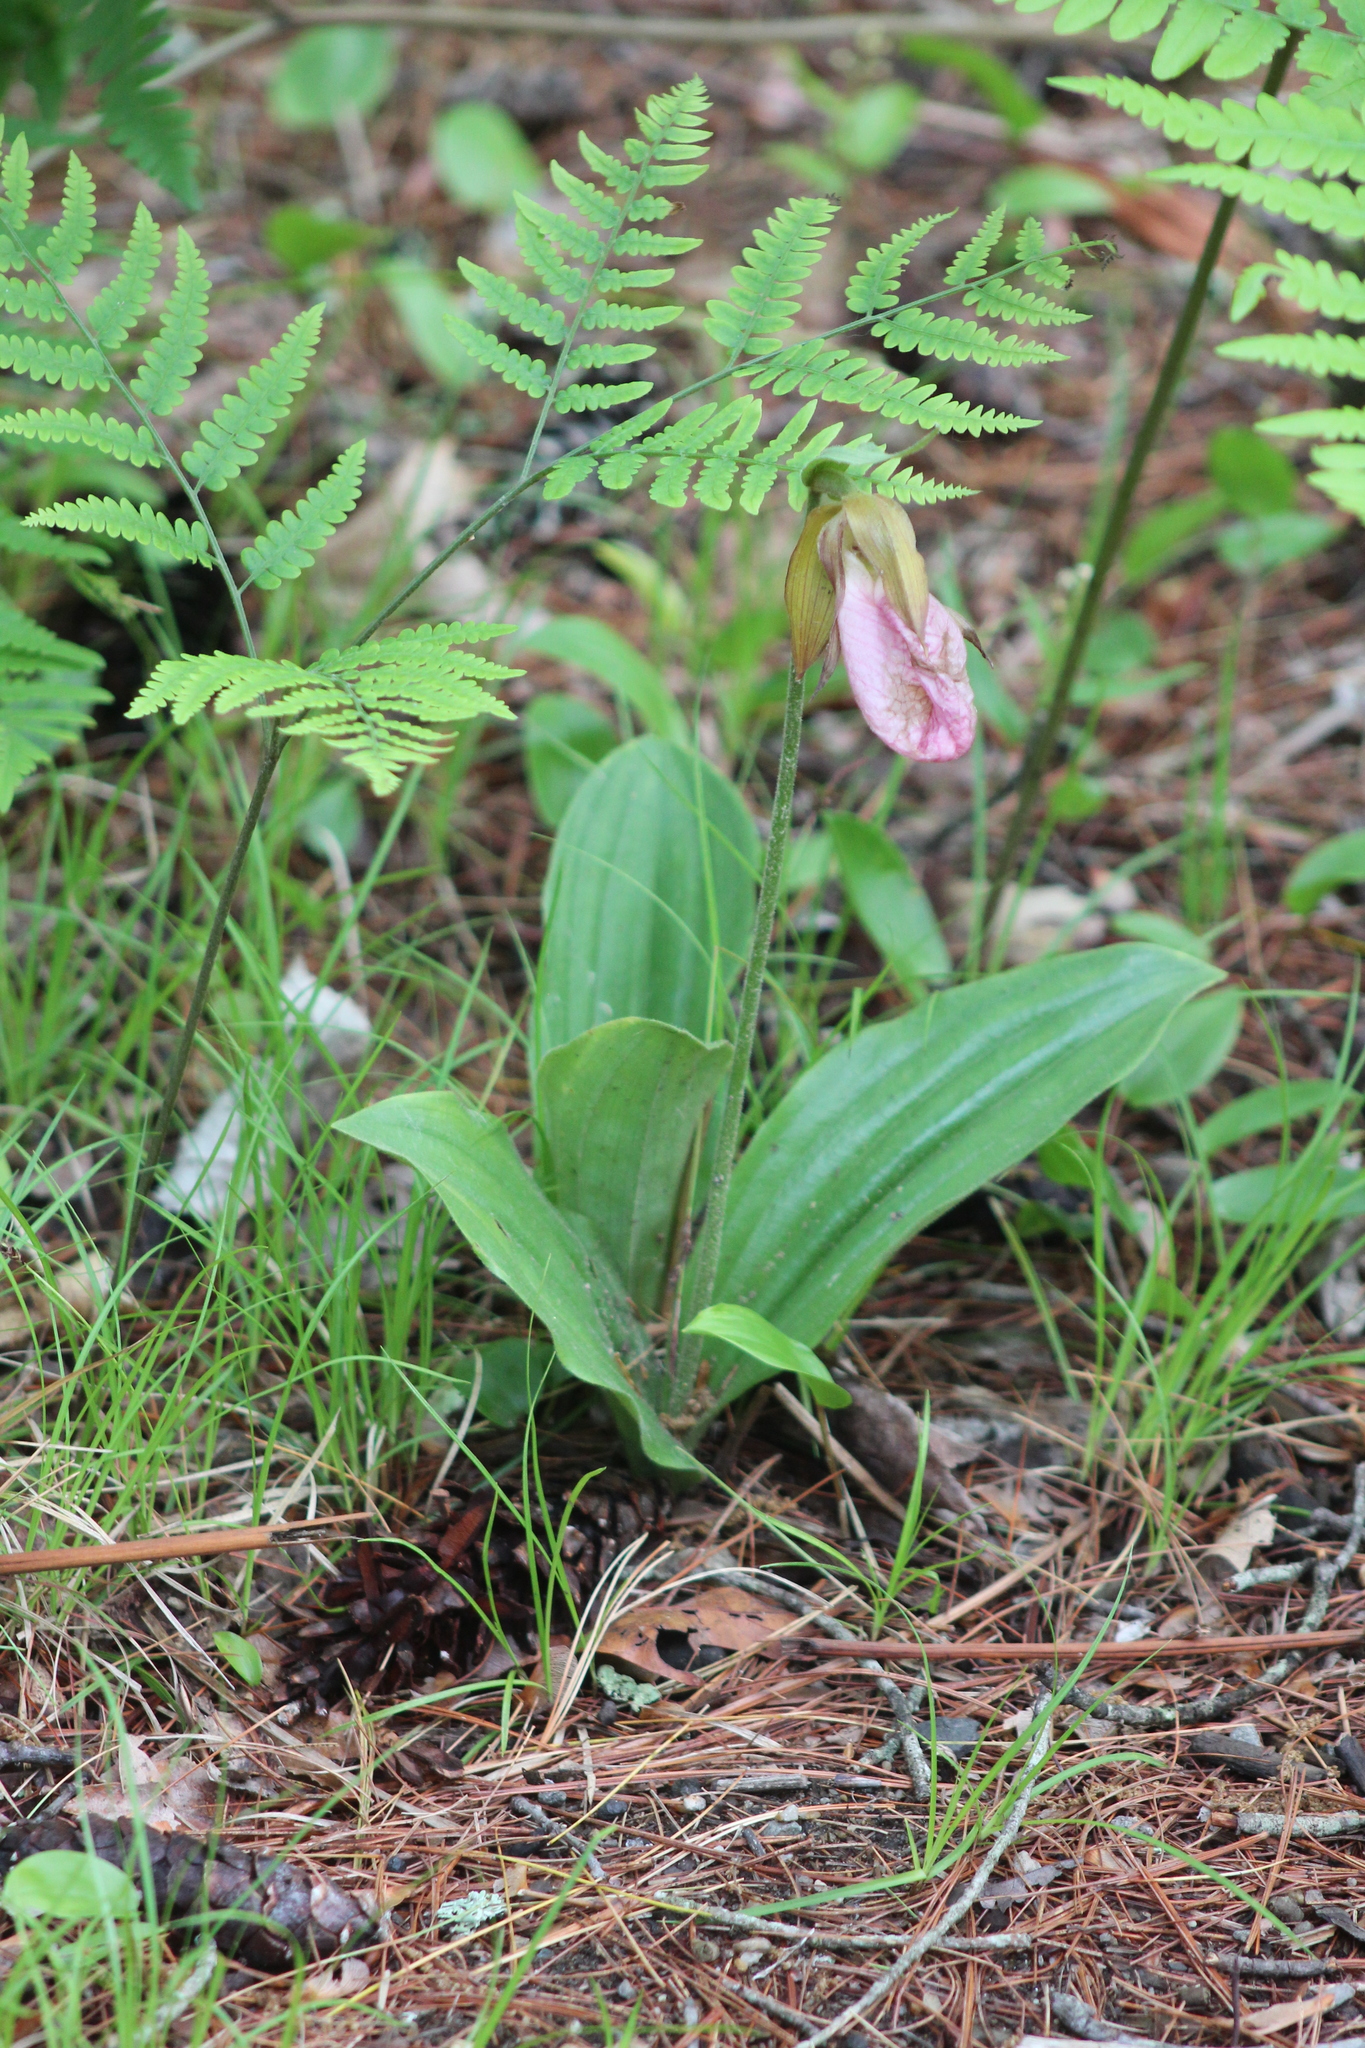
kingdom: Plantae
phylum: Tracheophyta
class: Liliopsida
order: Asparagales
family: Orchidaceae
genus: Cypripedium
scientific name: Cypripedium acaule
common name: Pink lady's-slipper
